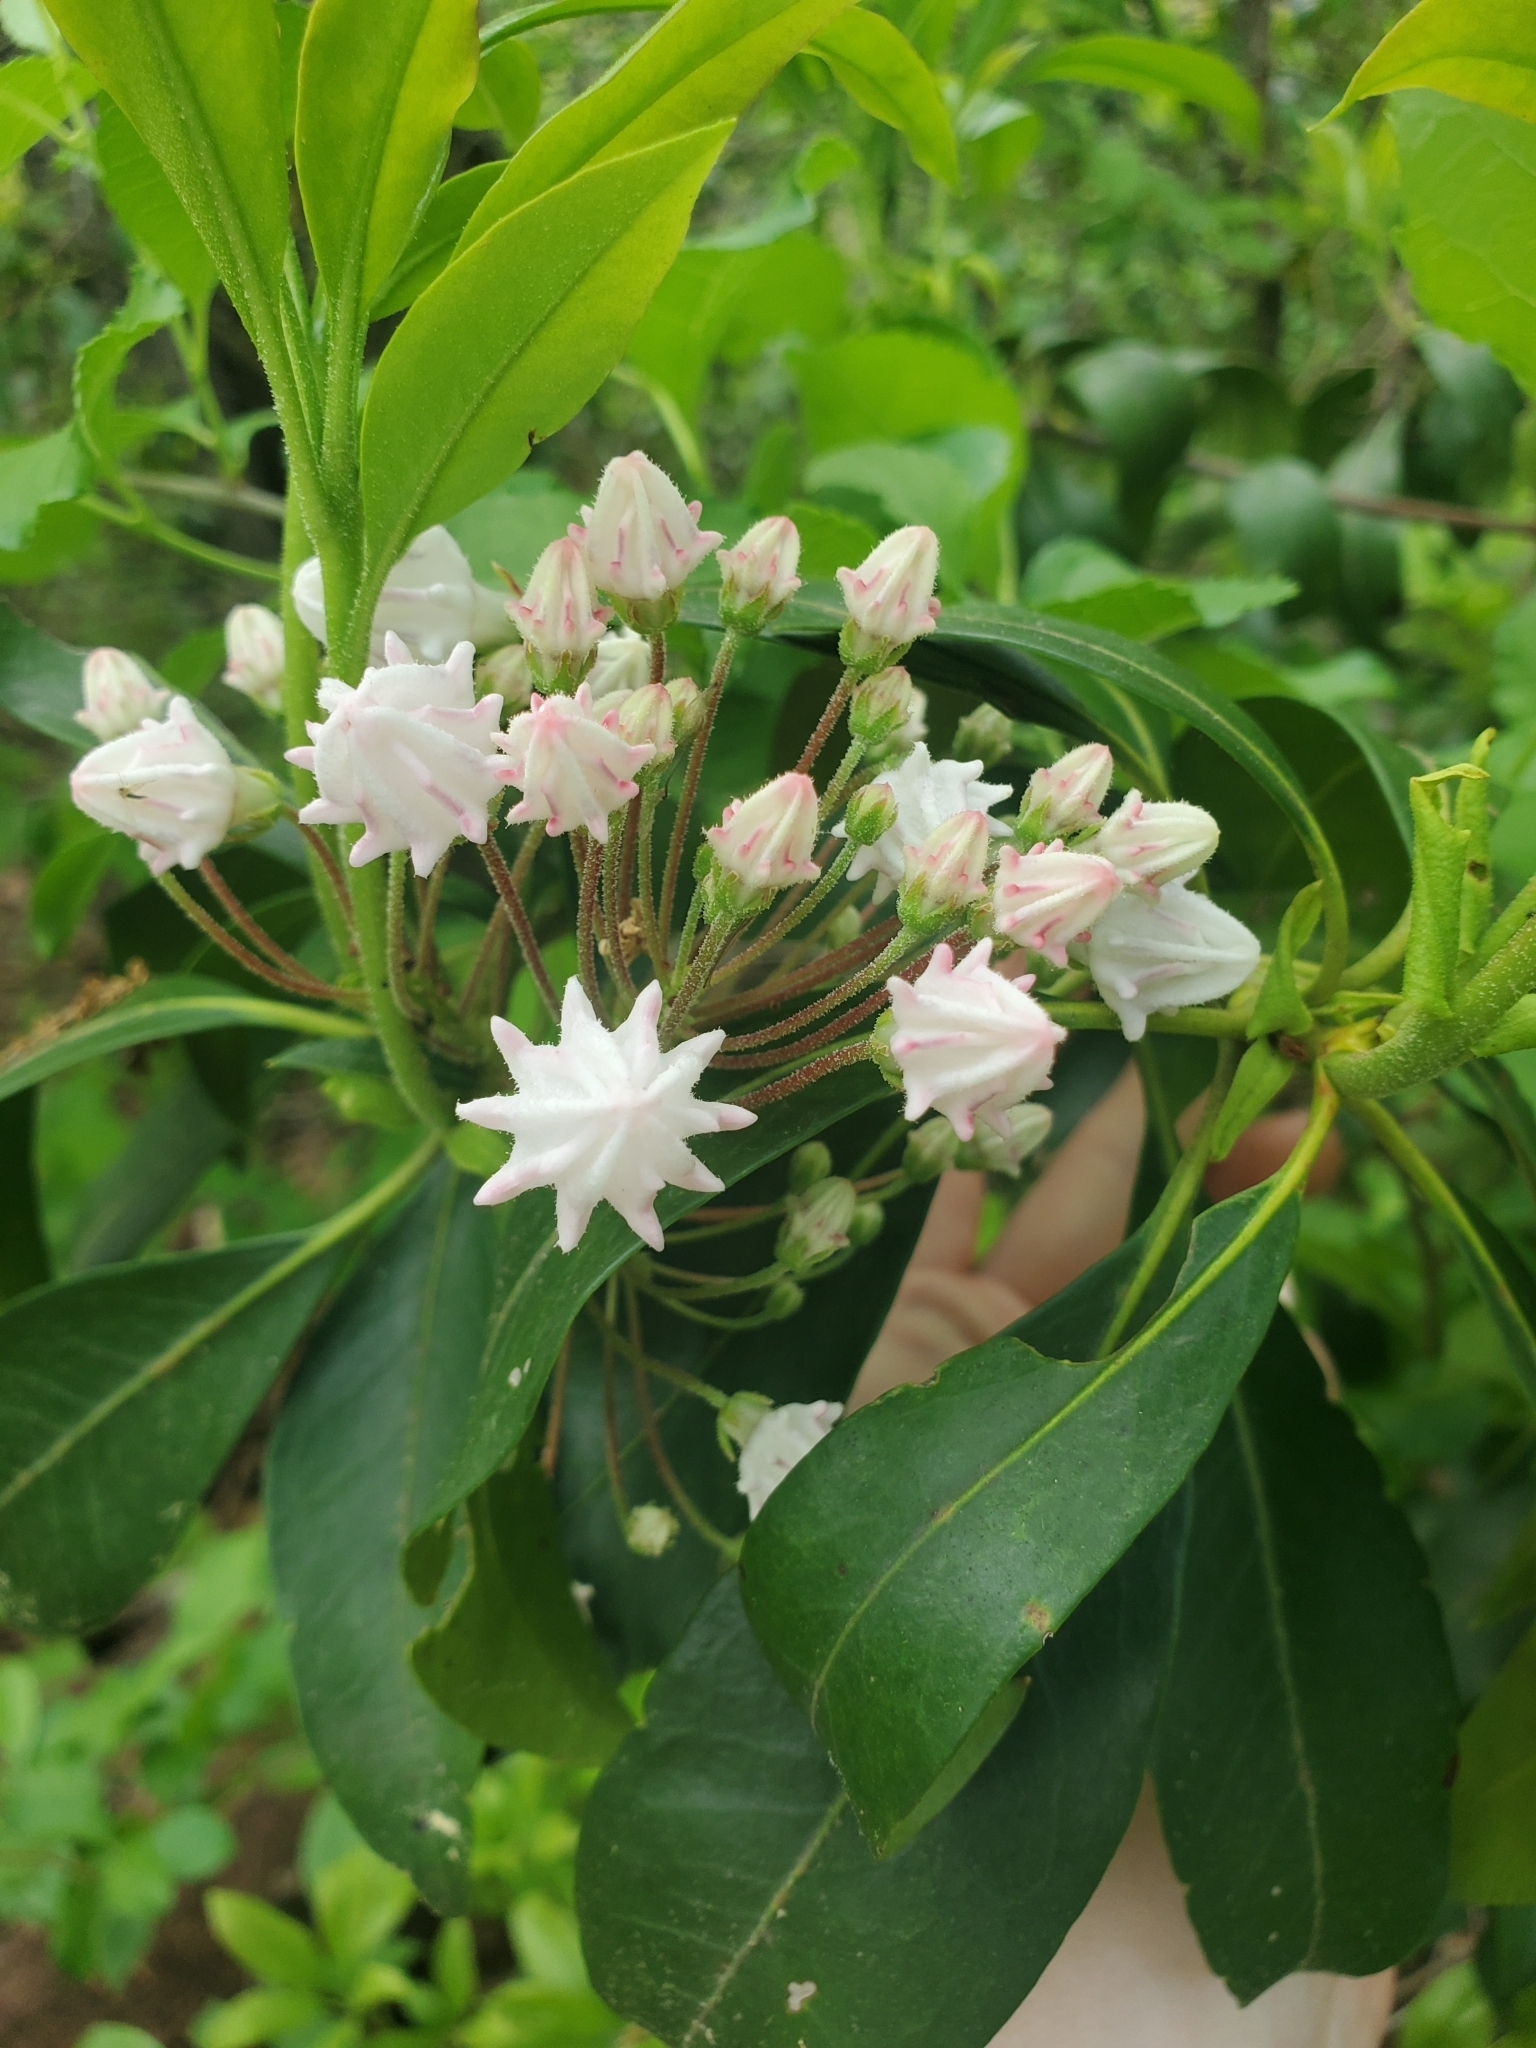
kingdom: Plantae
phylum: Tracheophyta
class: Magnoliopsida
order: Ericales
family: Ericaceae
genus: Kalmia
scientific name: Kalmia latifolia
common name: Mountain-laurel
